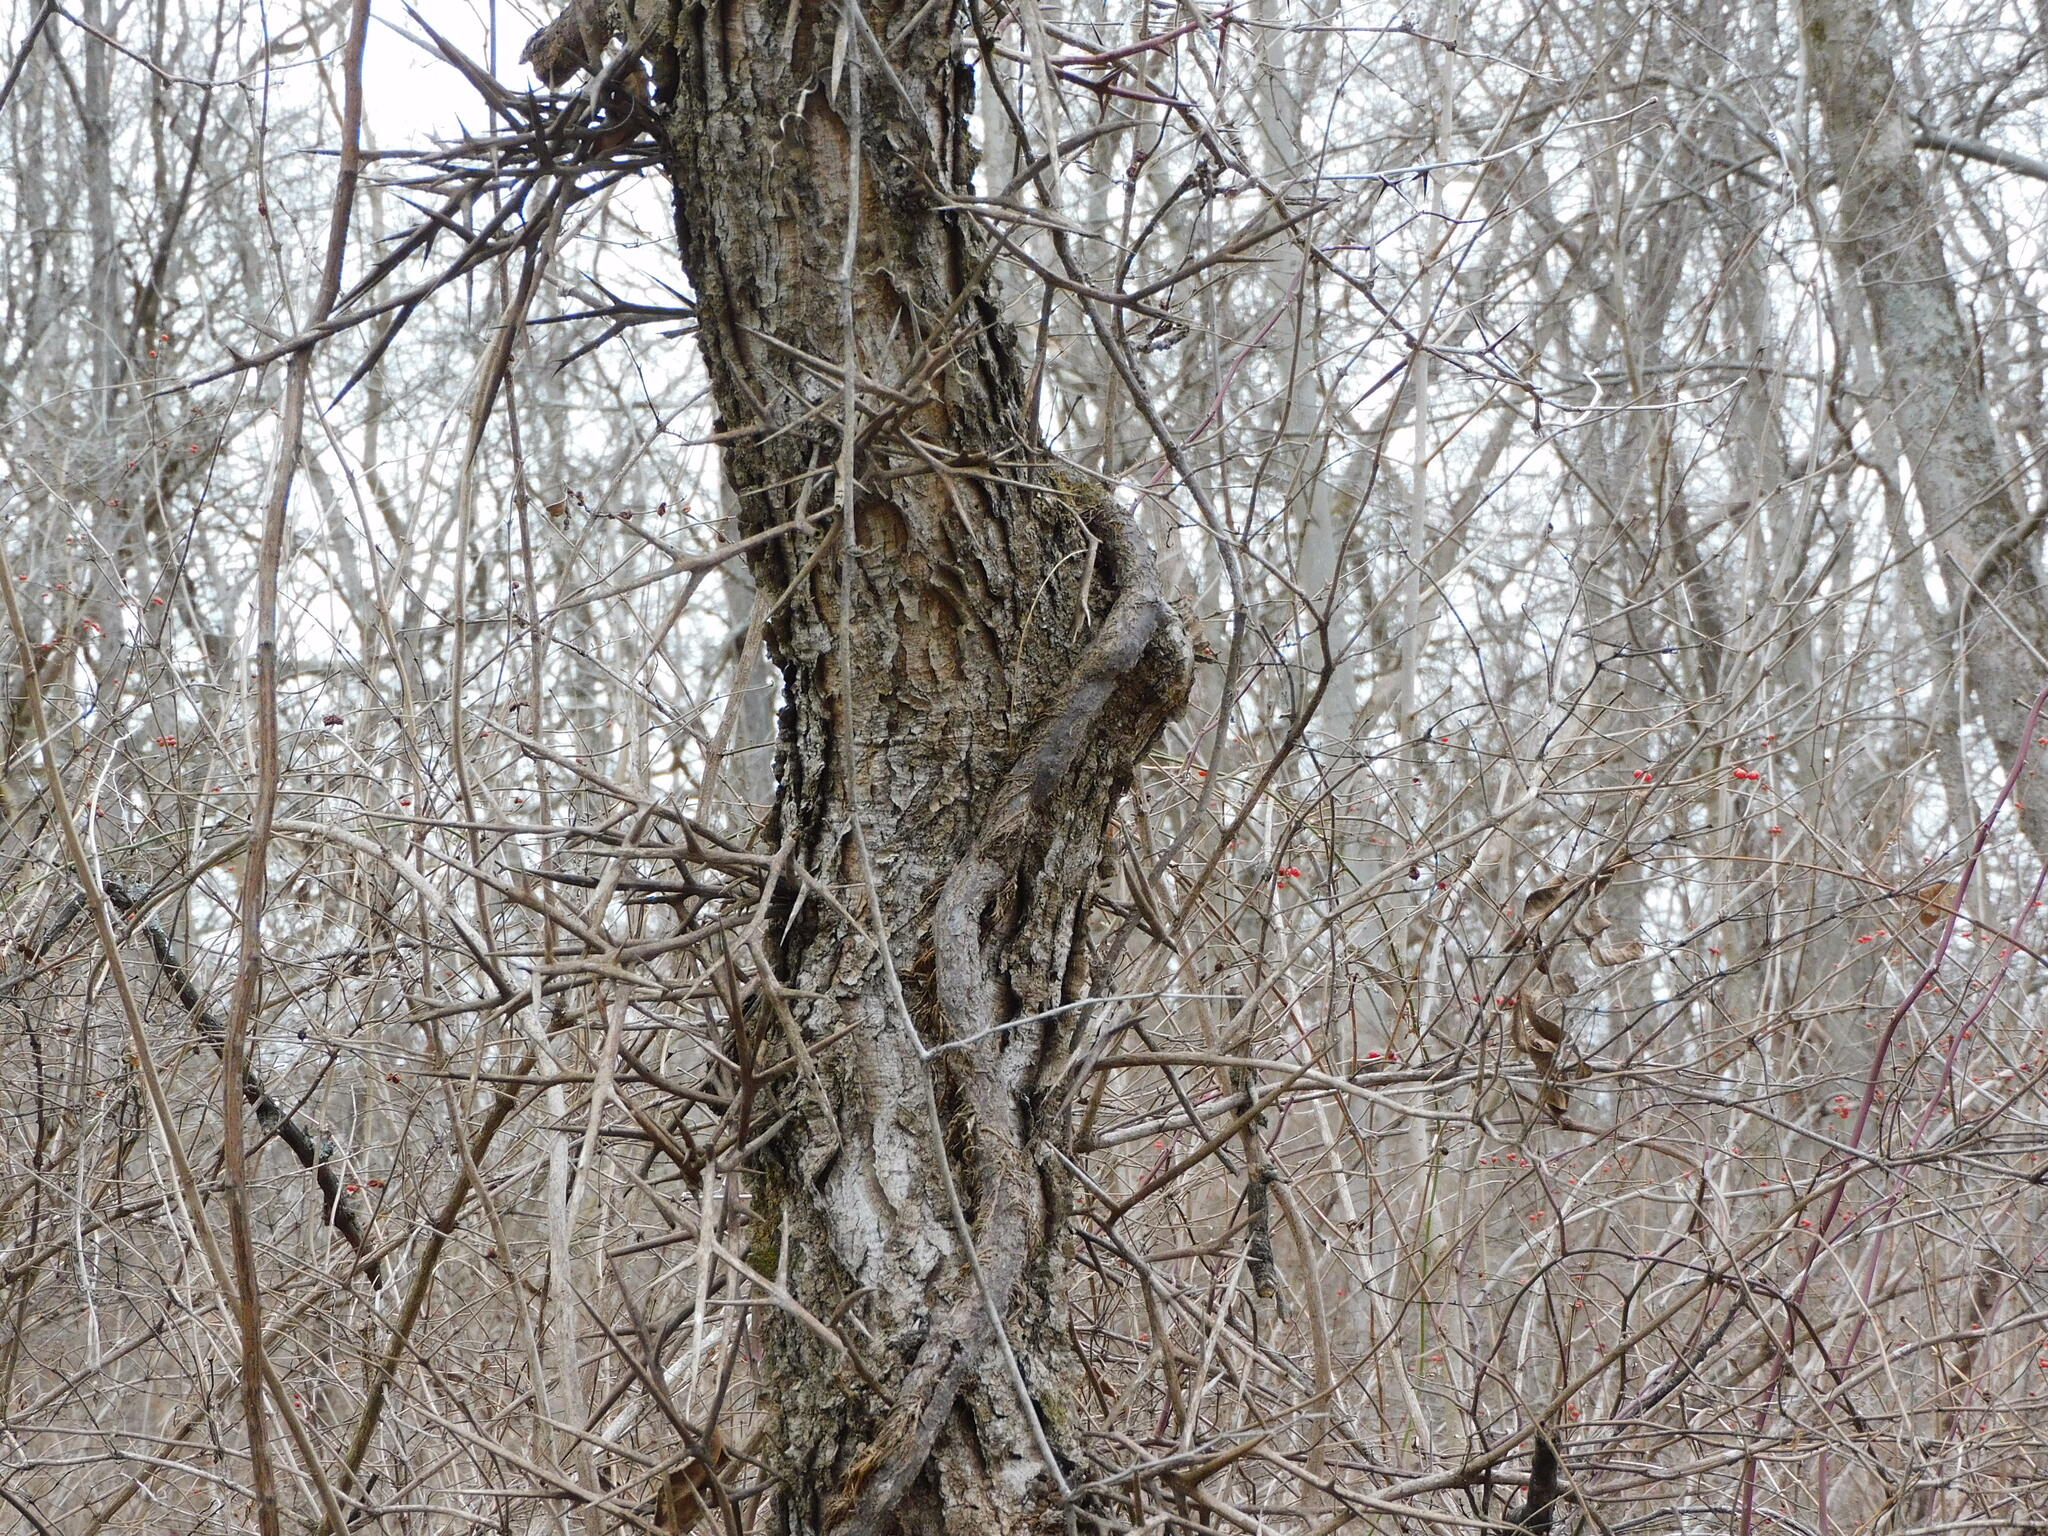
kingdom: Plantae
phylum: Tracheophyta
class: Magnoliopsida
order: Fabales
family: Fabaceae
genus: Gleditsia
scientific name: Gleditsia triacanthos
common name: Common honeylocust
